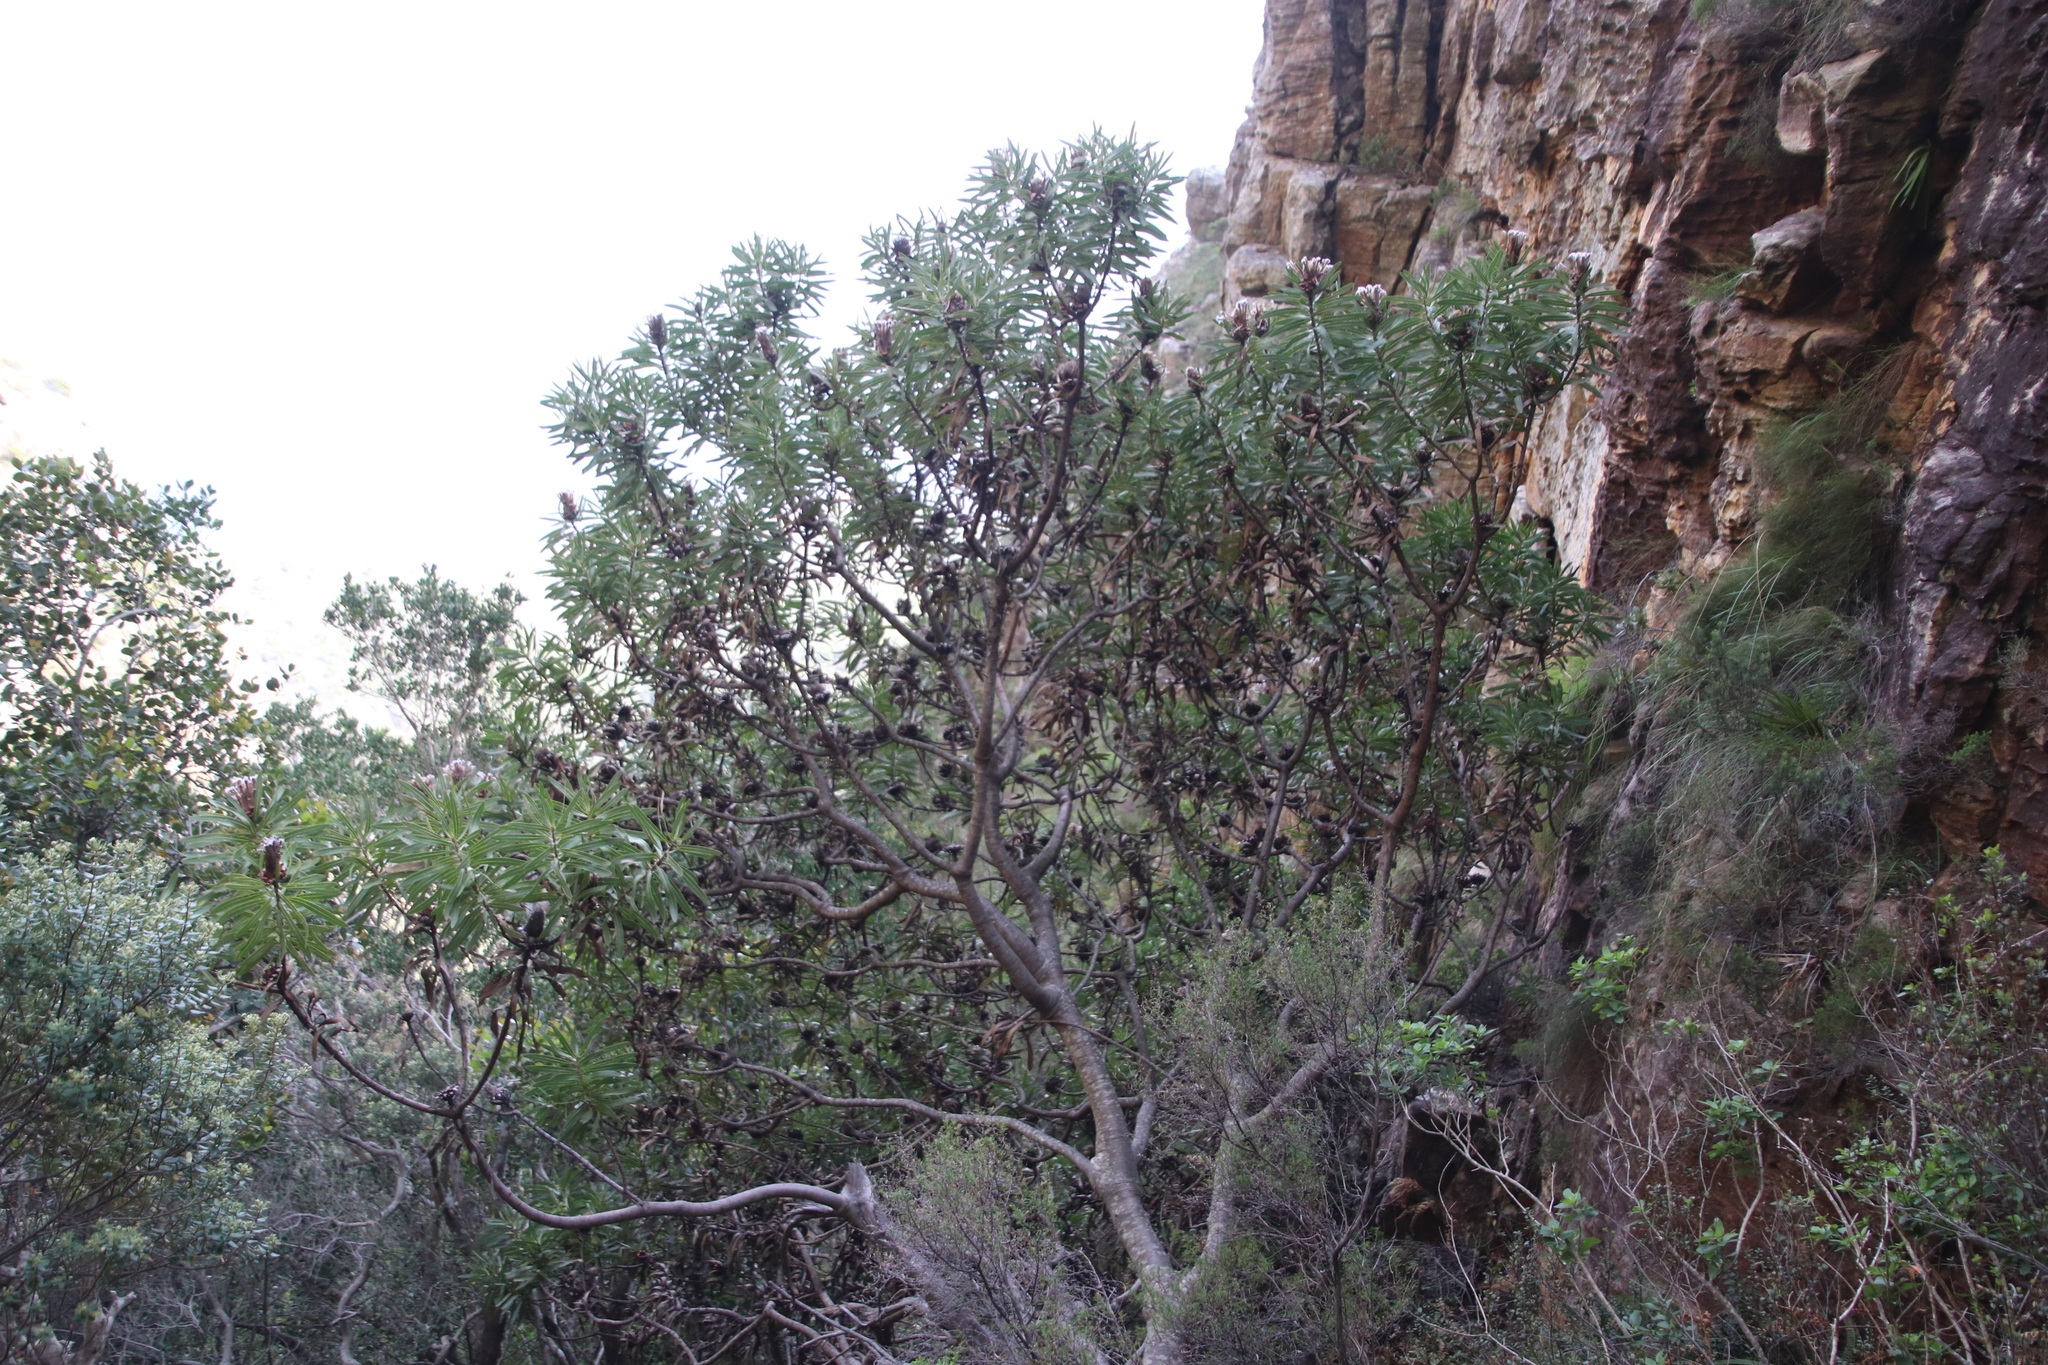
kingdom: Plantae
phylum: Tracheophyta
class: Magnoliopsida
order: Proteales
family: Proteaceae
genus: Protea
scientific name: Protea lepidocarpodendron
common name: Black-bearded protea
